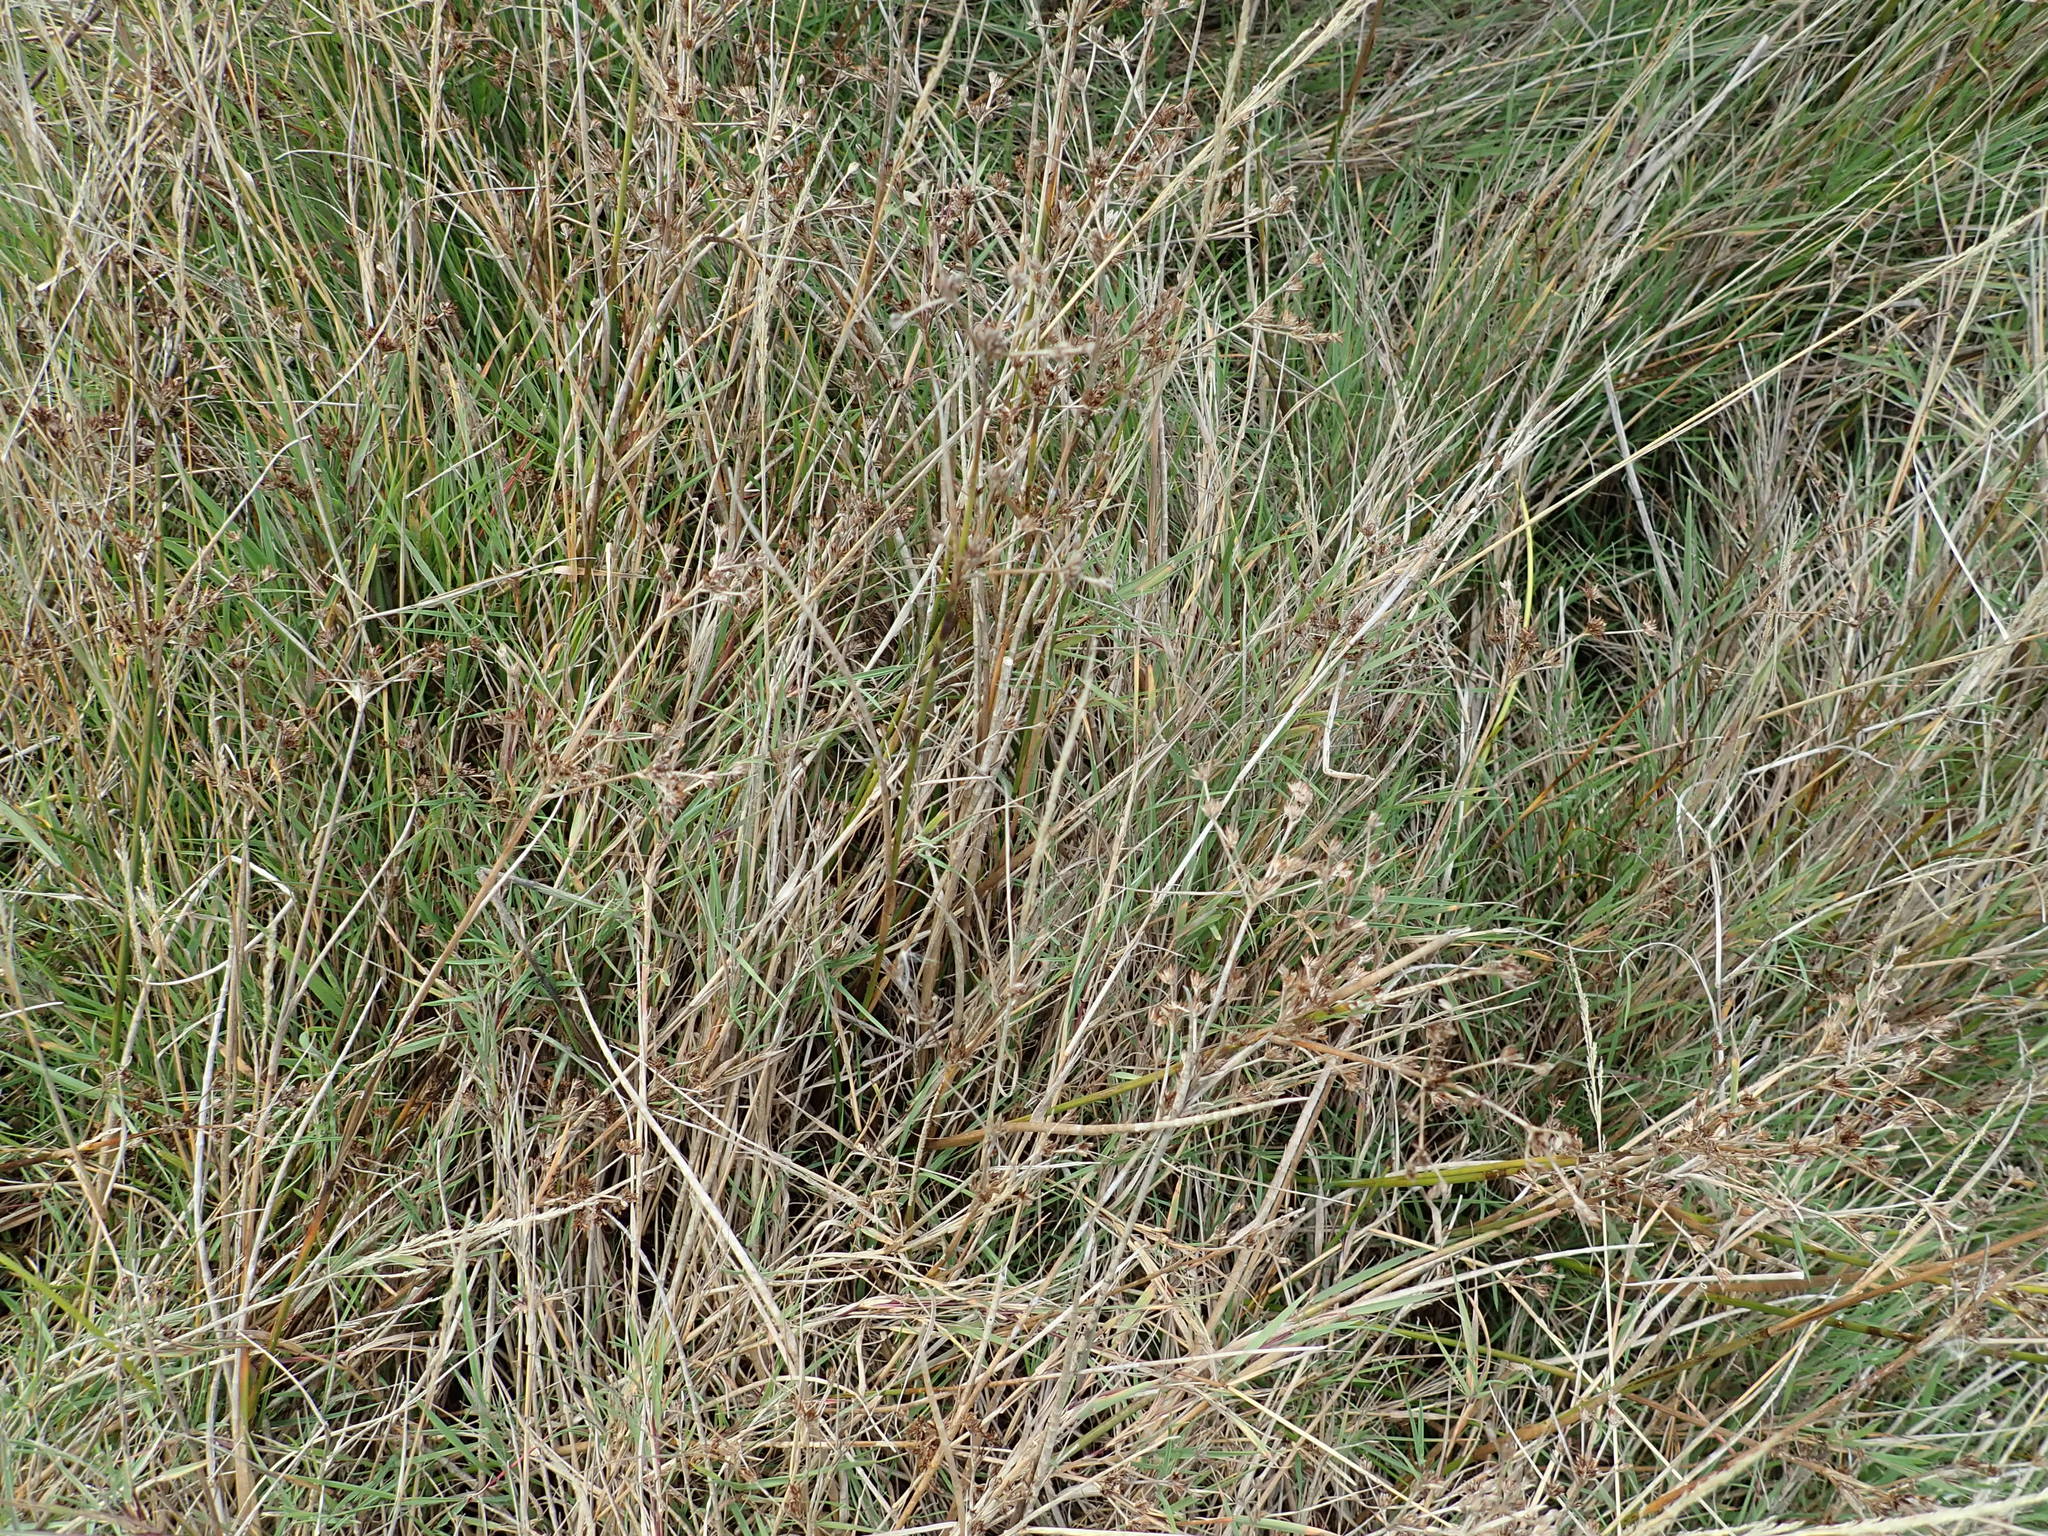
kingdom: Plantae
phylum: Tracheophyta
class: Liliopsida
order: Poales
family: Juncaceae
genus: Juncus
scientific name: Juncus articulatus
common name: Jointed rush
